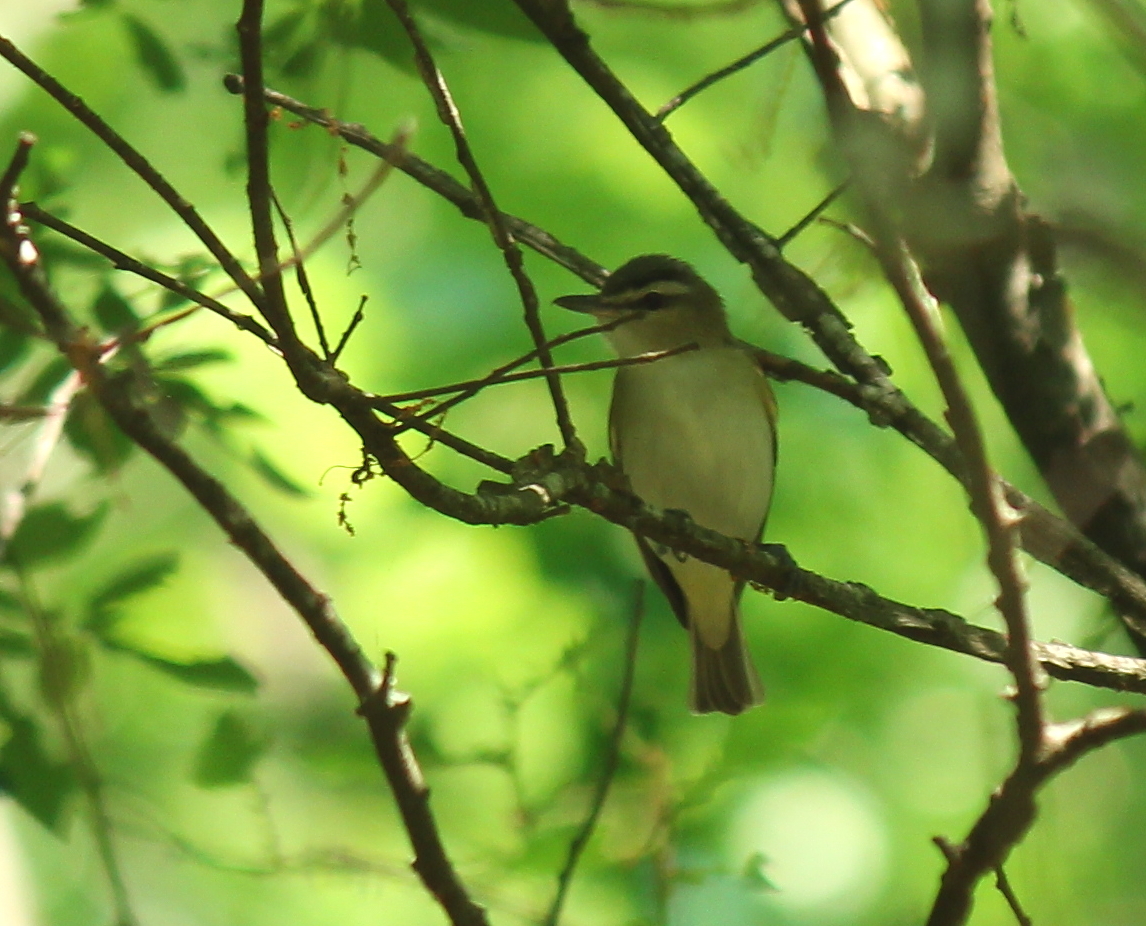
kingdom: Animalia
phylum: Chordata
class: Aves
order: Passeriformes
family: Vireonidae
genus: Vireo
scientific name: Vireo olivaceus
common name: Red-eyed vireo
